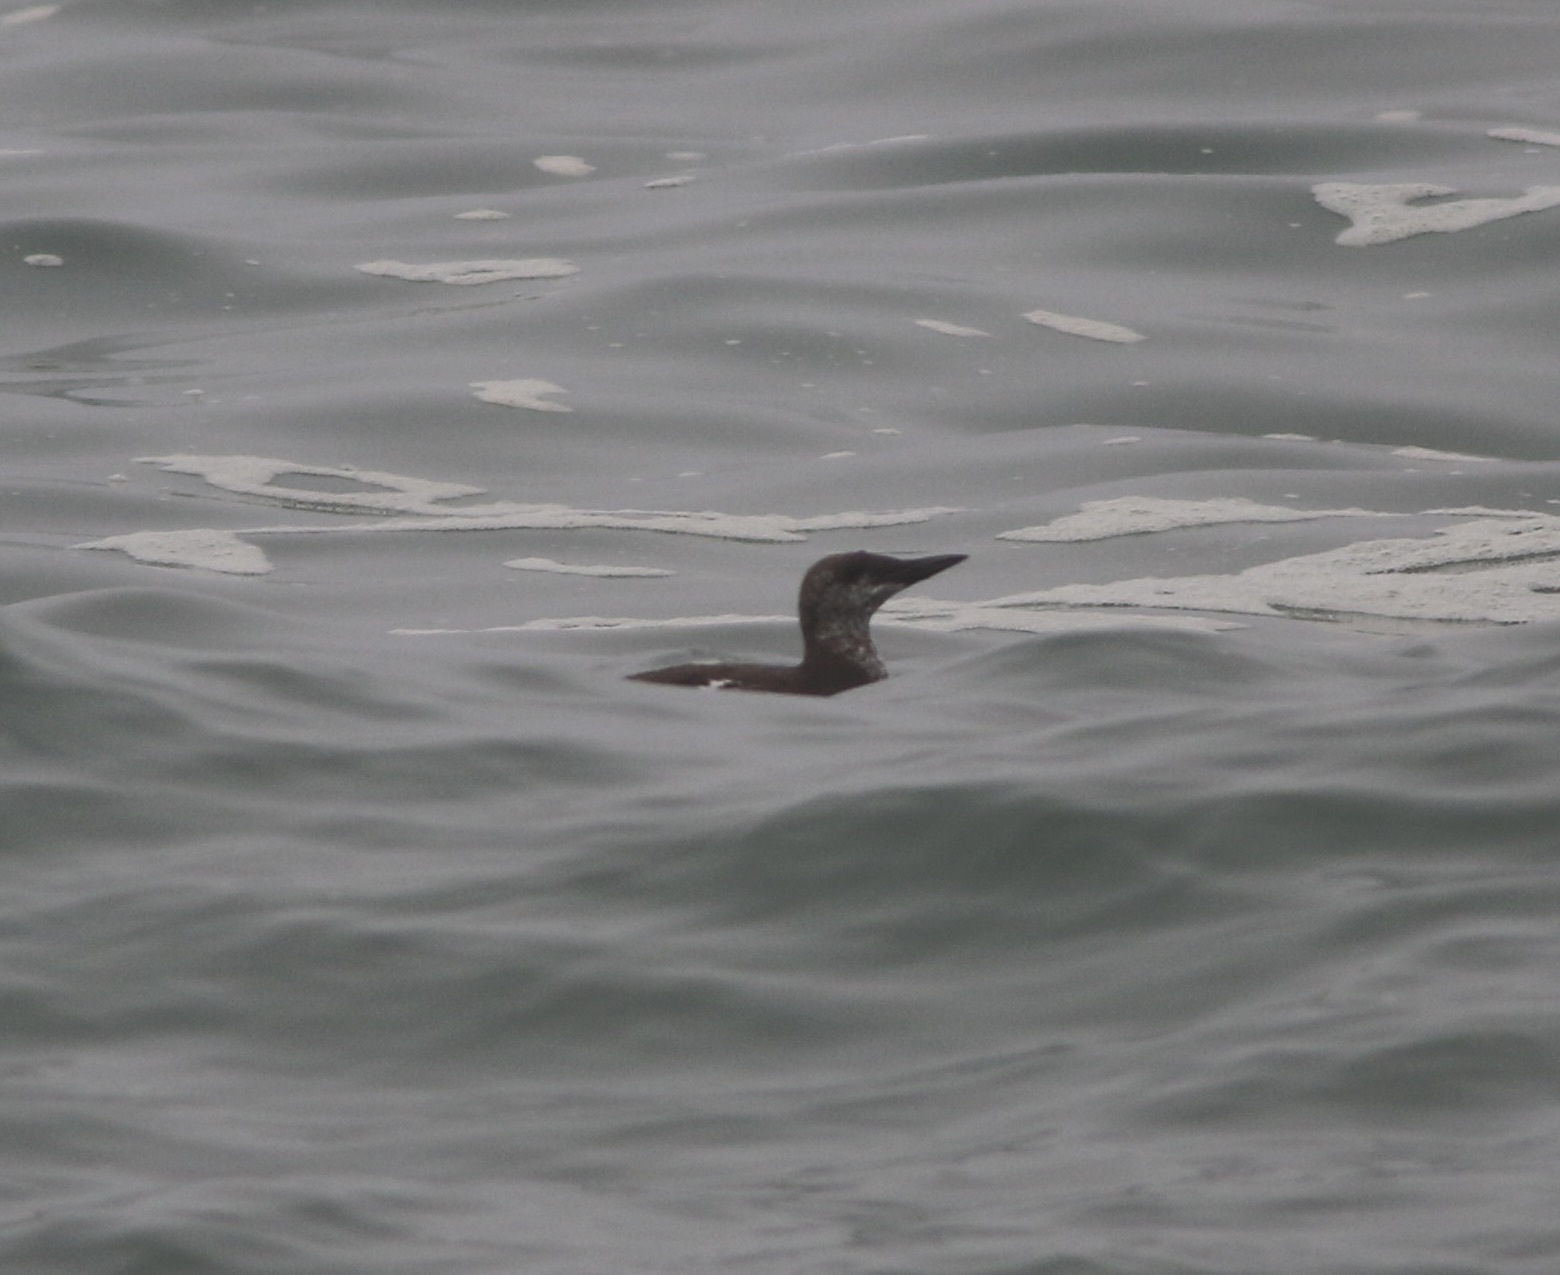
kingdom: Animalia
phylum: Chordata
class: Aves
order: Charadriiformes
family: Alcidae
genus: Uria
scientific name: Uria aalge
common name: Common murre
